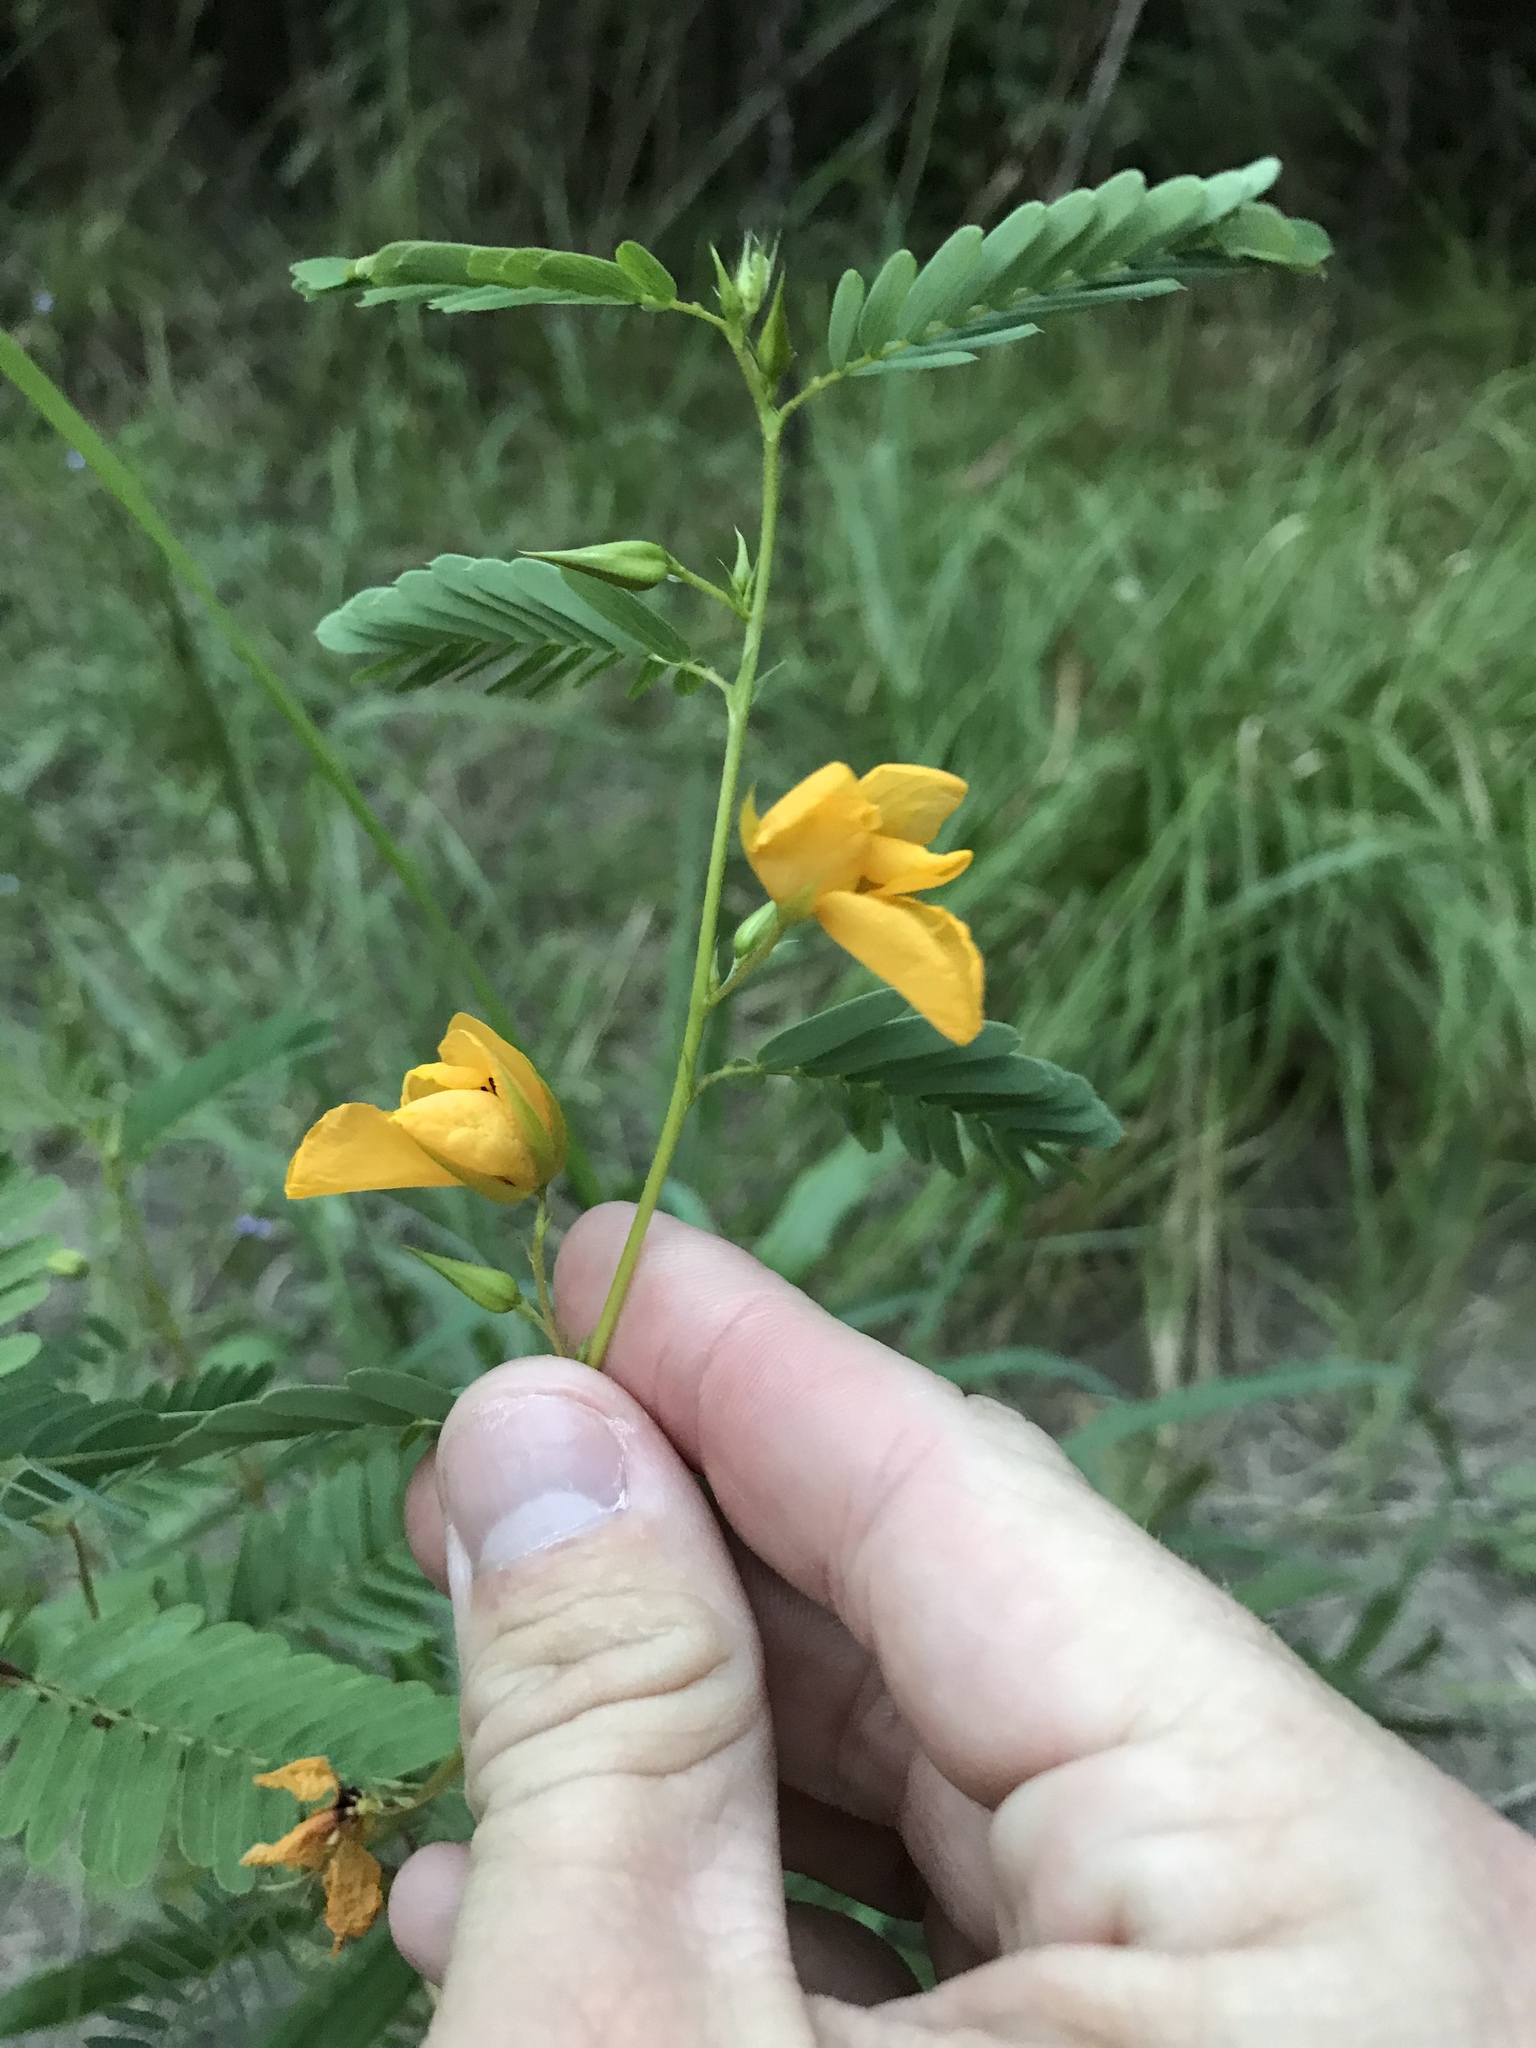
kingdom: Plantae
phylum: Tracheophyta
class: Magnoliopsida
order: Fabales
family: Fabaceae
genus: Chamaecrista
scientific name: Chamaecrista fasciculata
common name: Golden cassia
